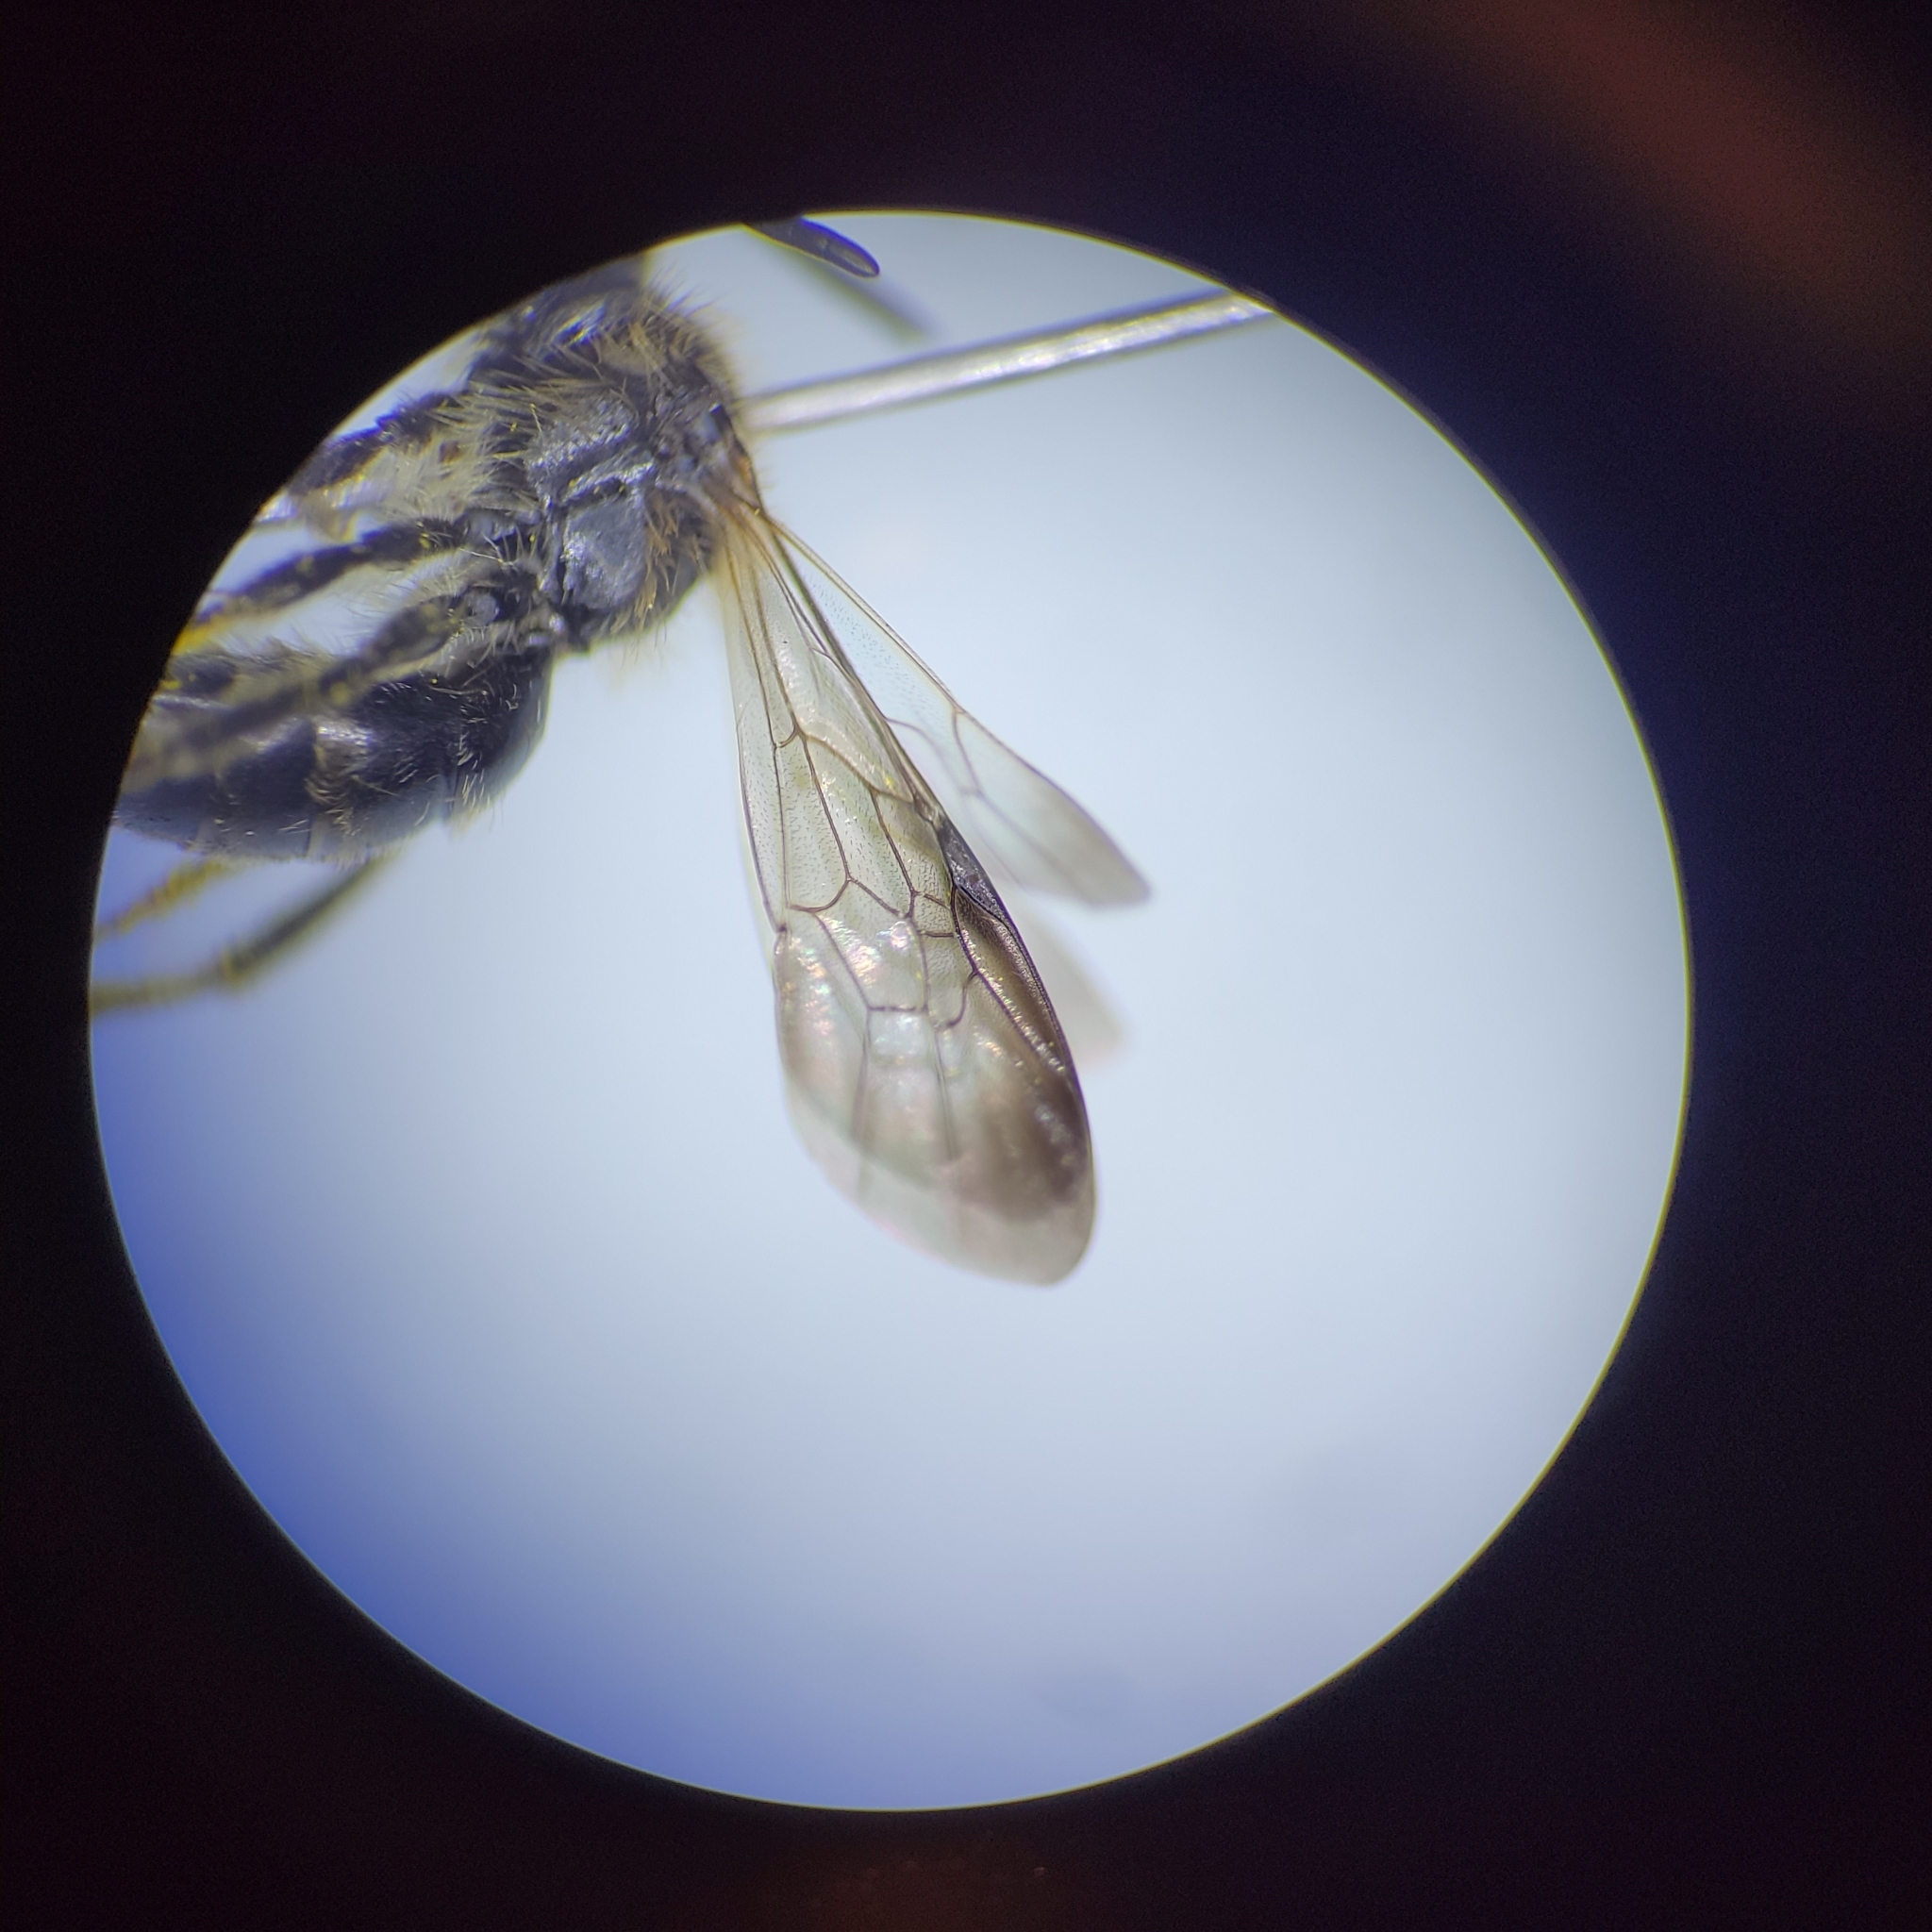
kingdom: Animalia
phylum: Arthropoda
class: Insecta
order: Hymenoptera
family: Andrenidae
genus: Andrena
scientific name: Andrena nubecula
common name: Cloudy-winged mining bee
